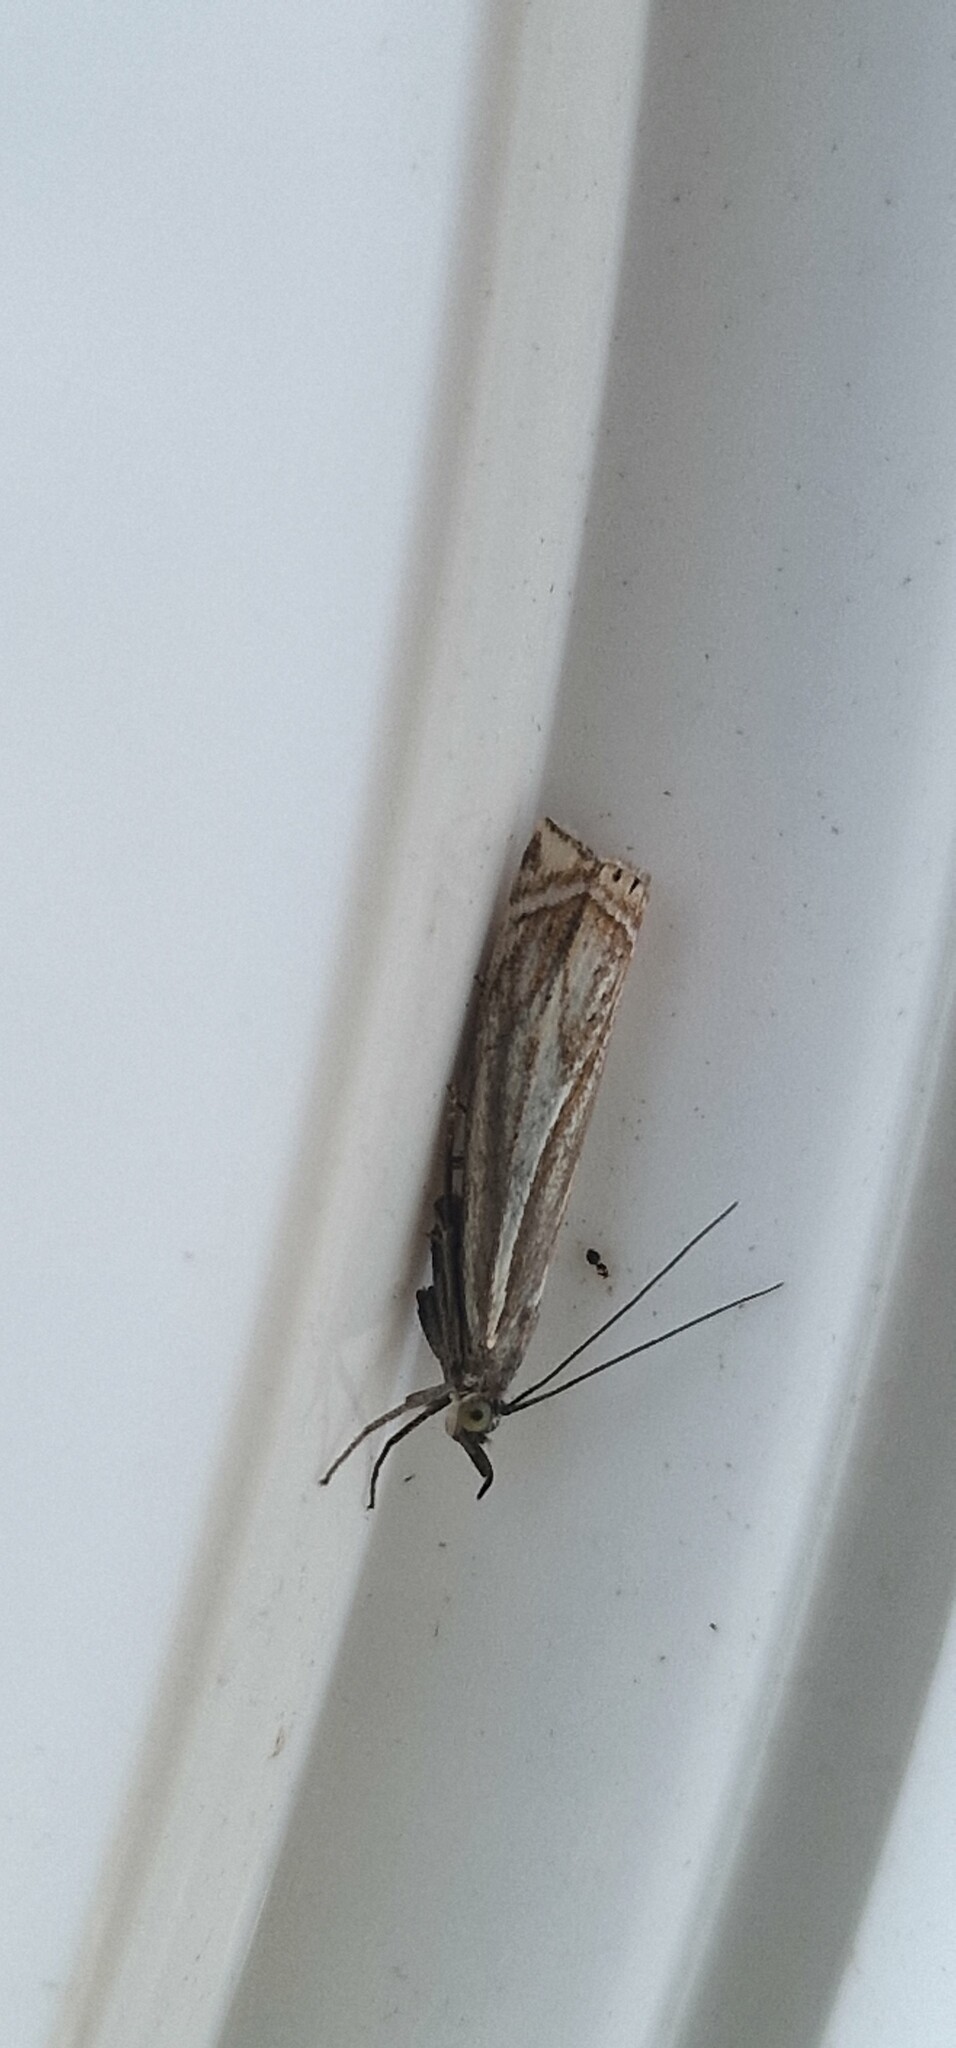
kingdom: Animalia
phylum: Arthropoda
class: Insecta
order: Lepidoptera
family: Crambidae
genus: Crambus
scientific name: Crambus nemorella
